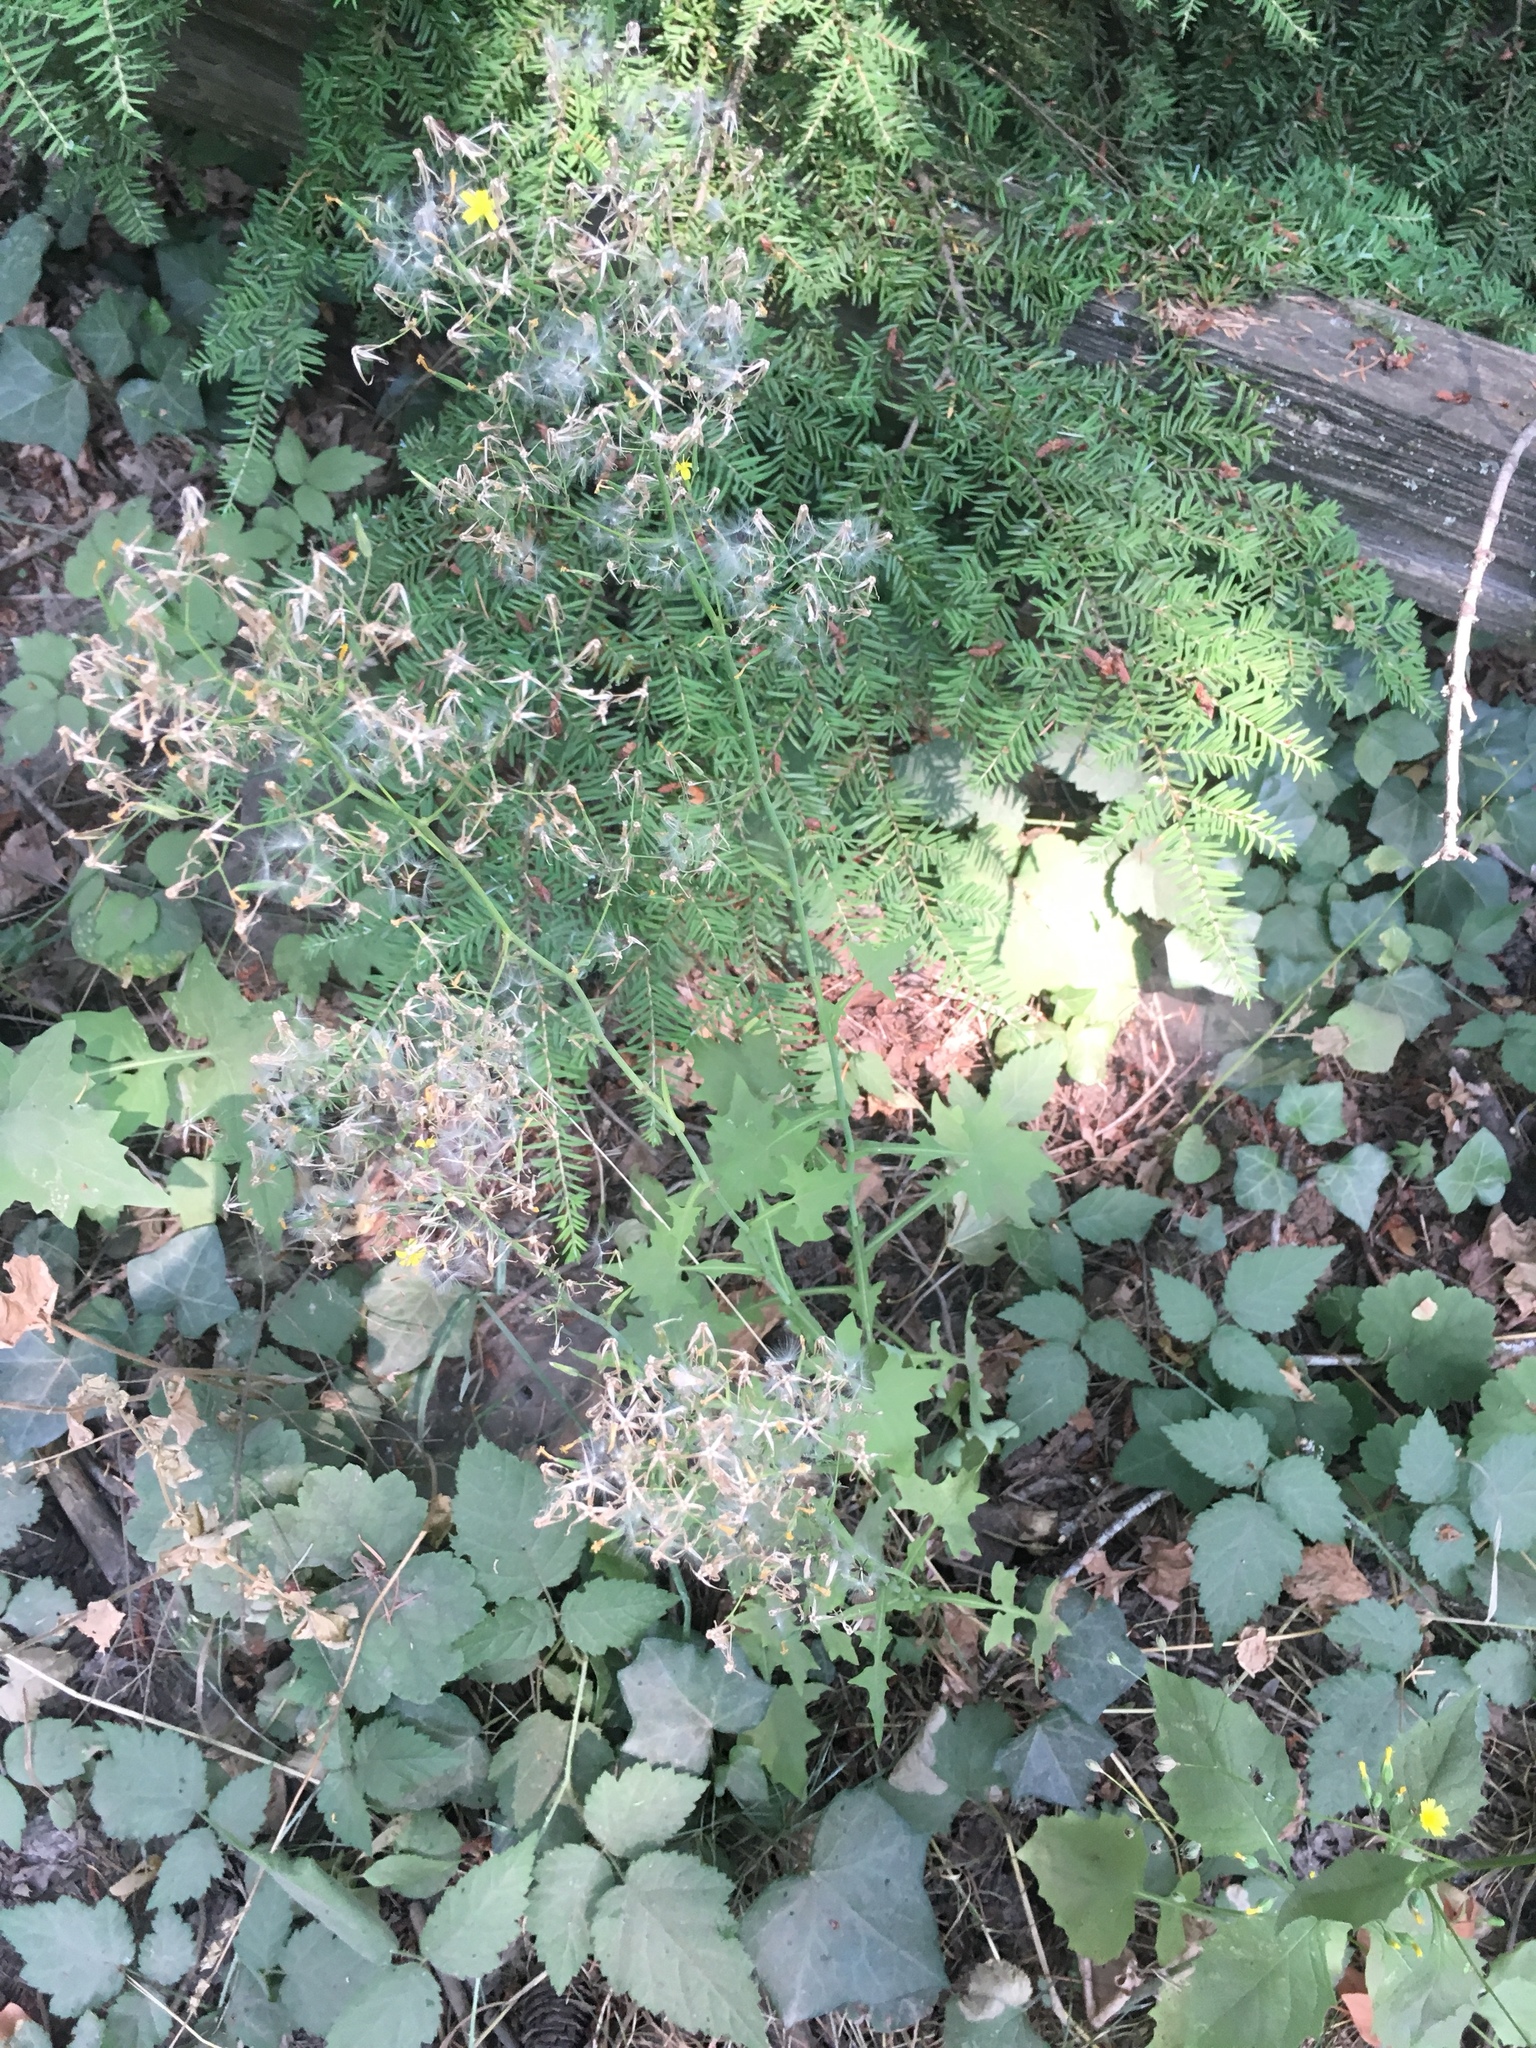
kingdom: Plantae
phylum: Tracheophyta
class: Magnoliopsida
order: Asterales
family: Asteraceae
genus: Mycelis
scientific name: Mycelis muralis
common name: Wall lettuce
